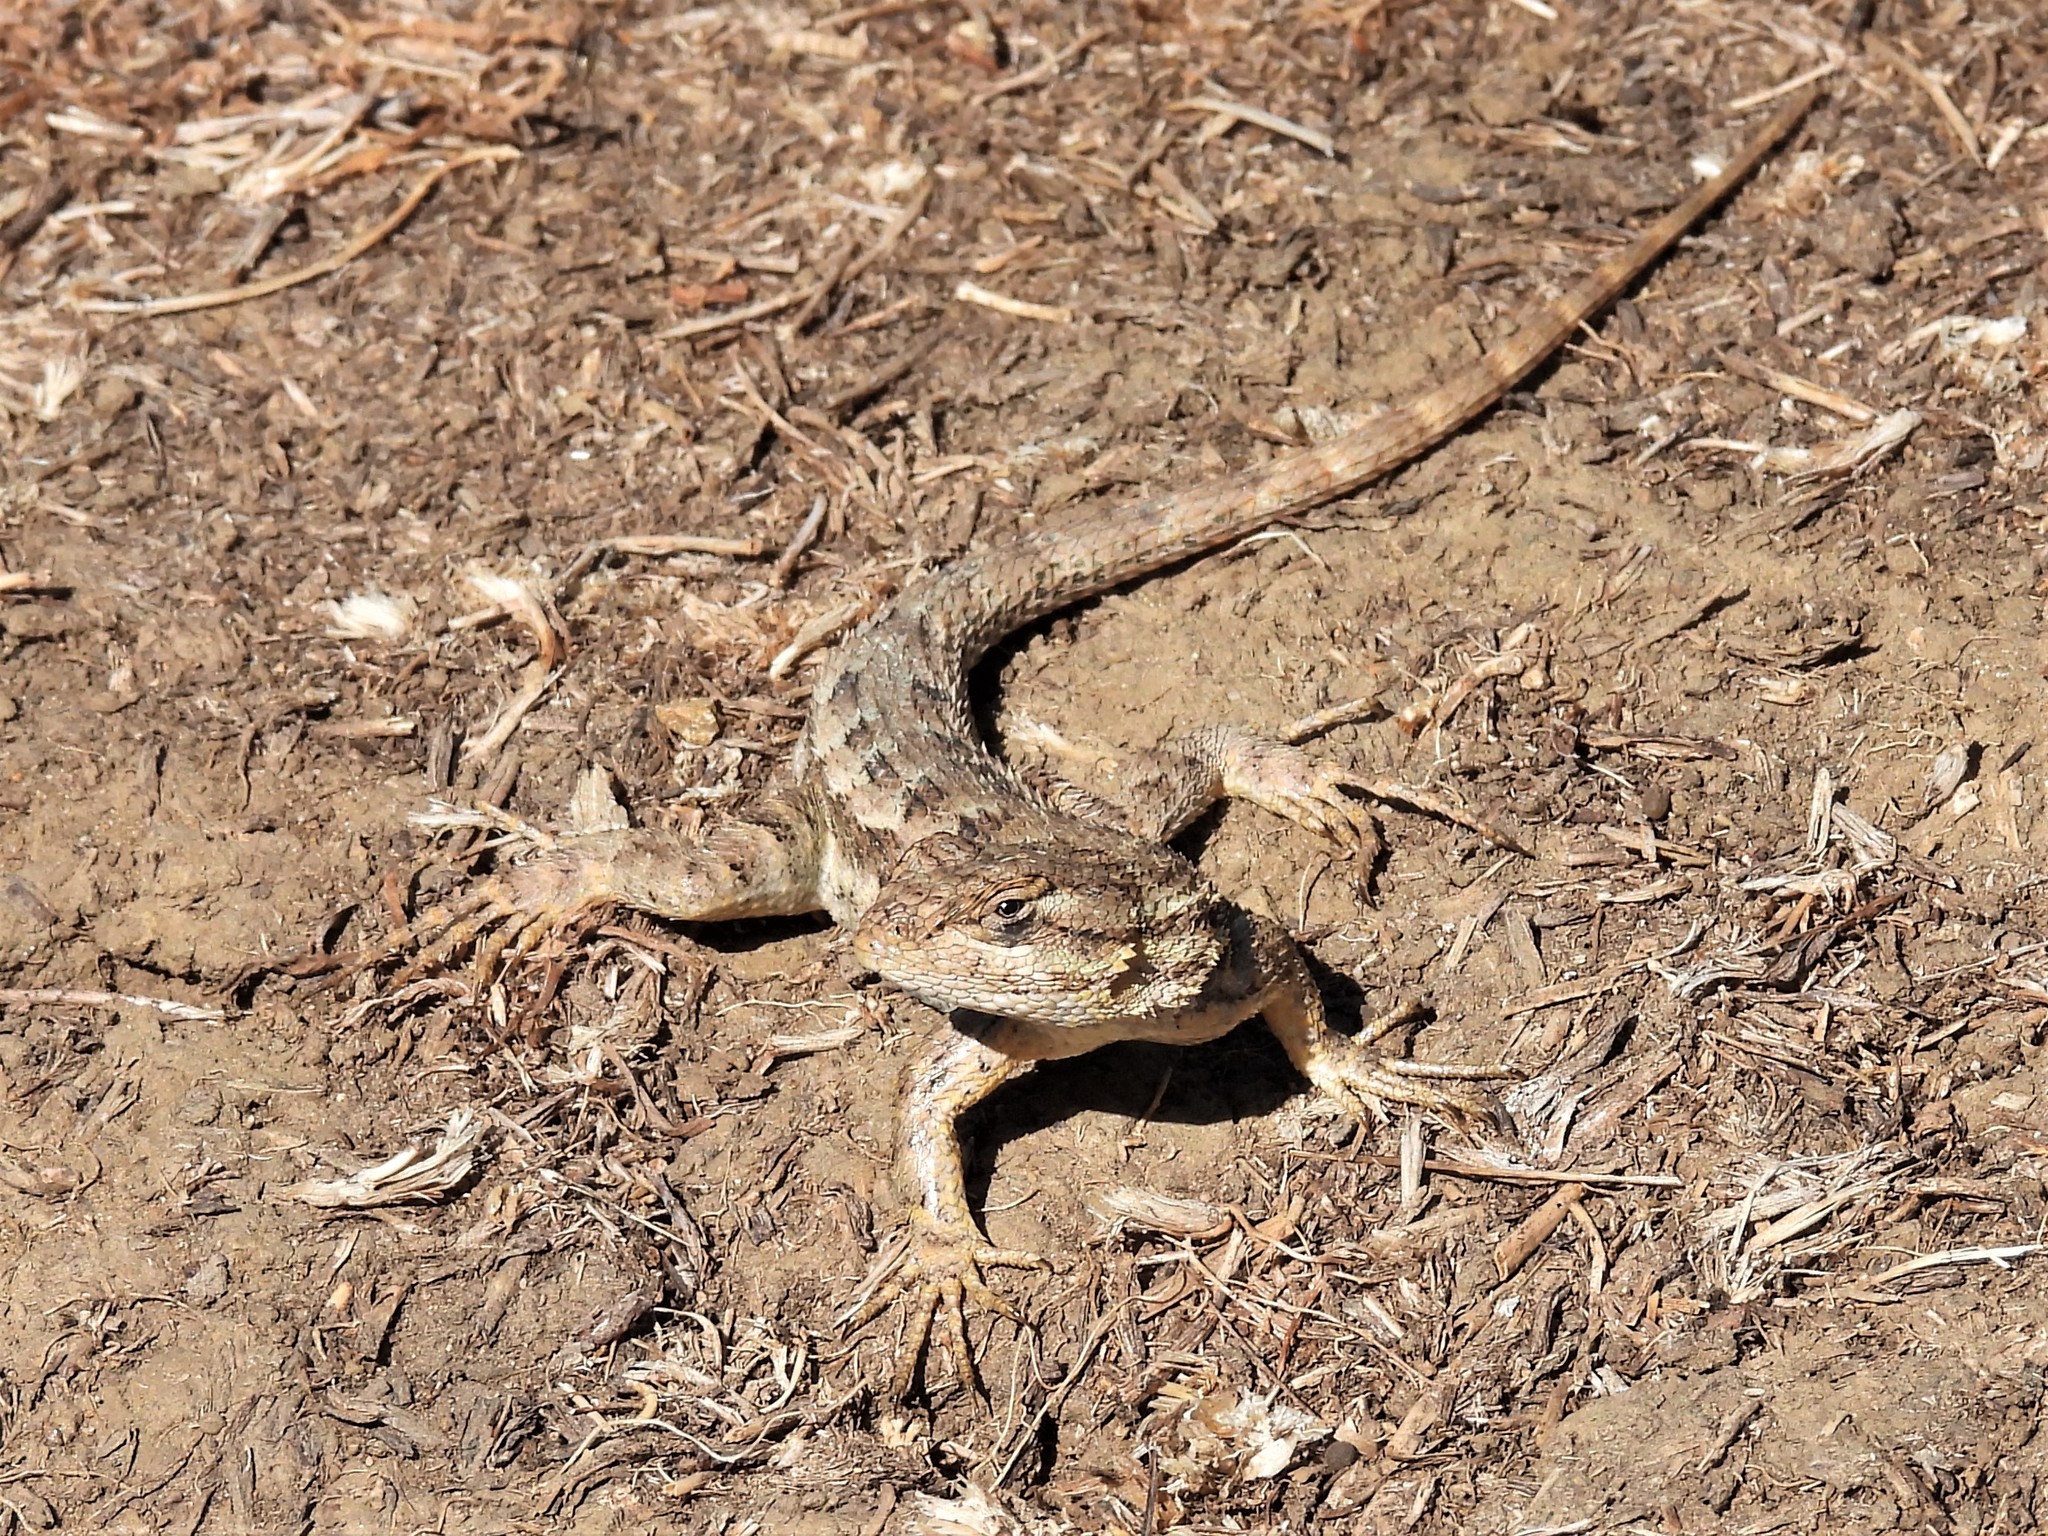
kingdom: Animalia
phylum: Chordata
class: Squamata
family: Phrynosomatidae
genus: Sceloporus
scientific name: Sceloporus occidentalis
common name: Western fence lizard
